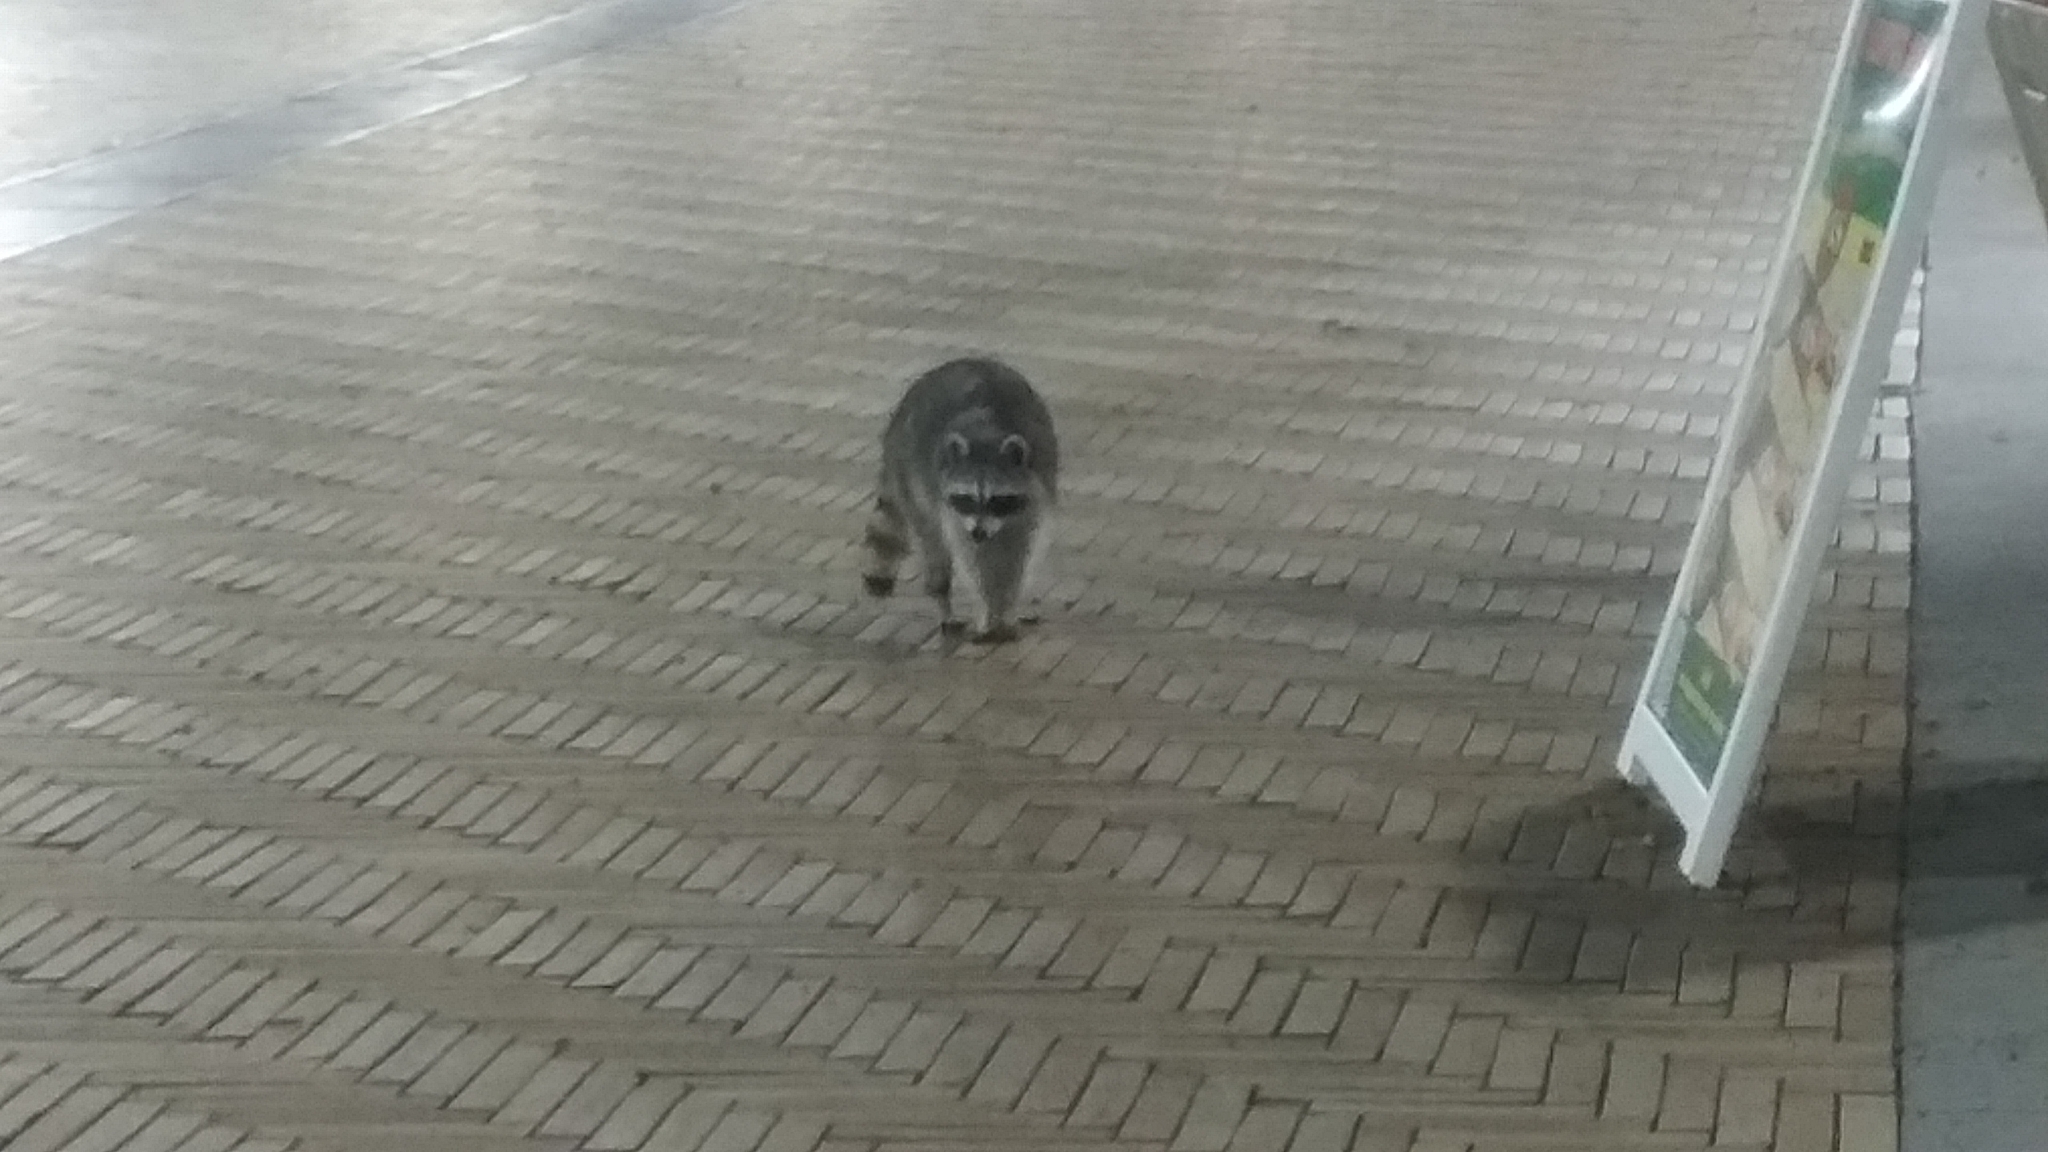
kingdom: Animalia
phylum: Chordata
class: Mammalia
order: Carnivora
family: Procyonidae
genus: Procyon
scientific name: Procyon lotor
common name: Raccoon
